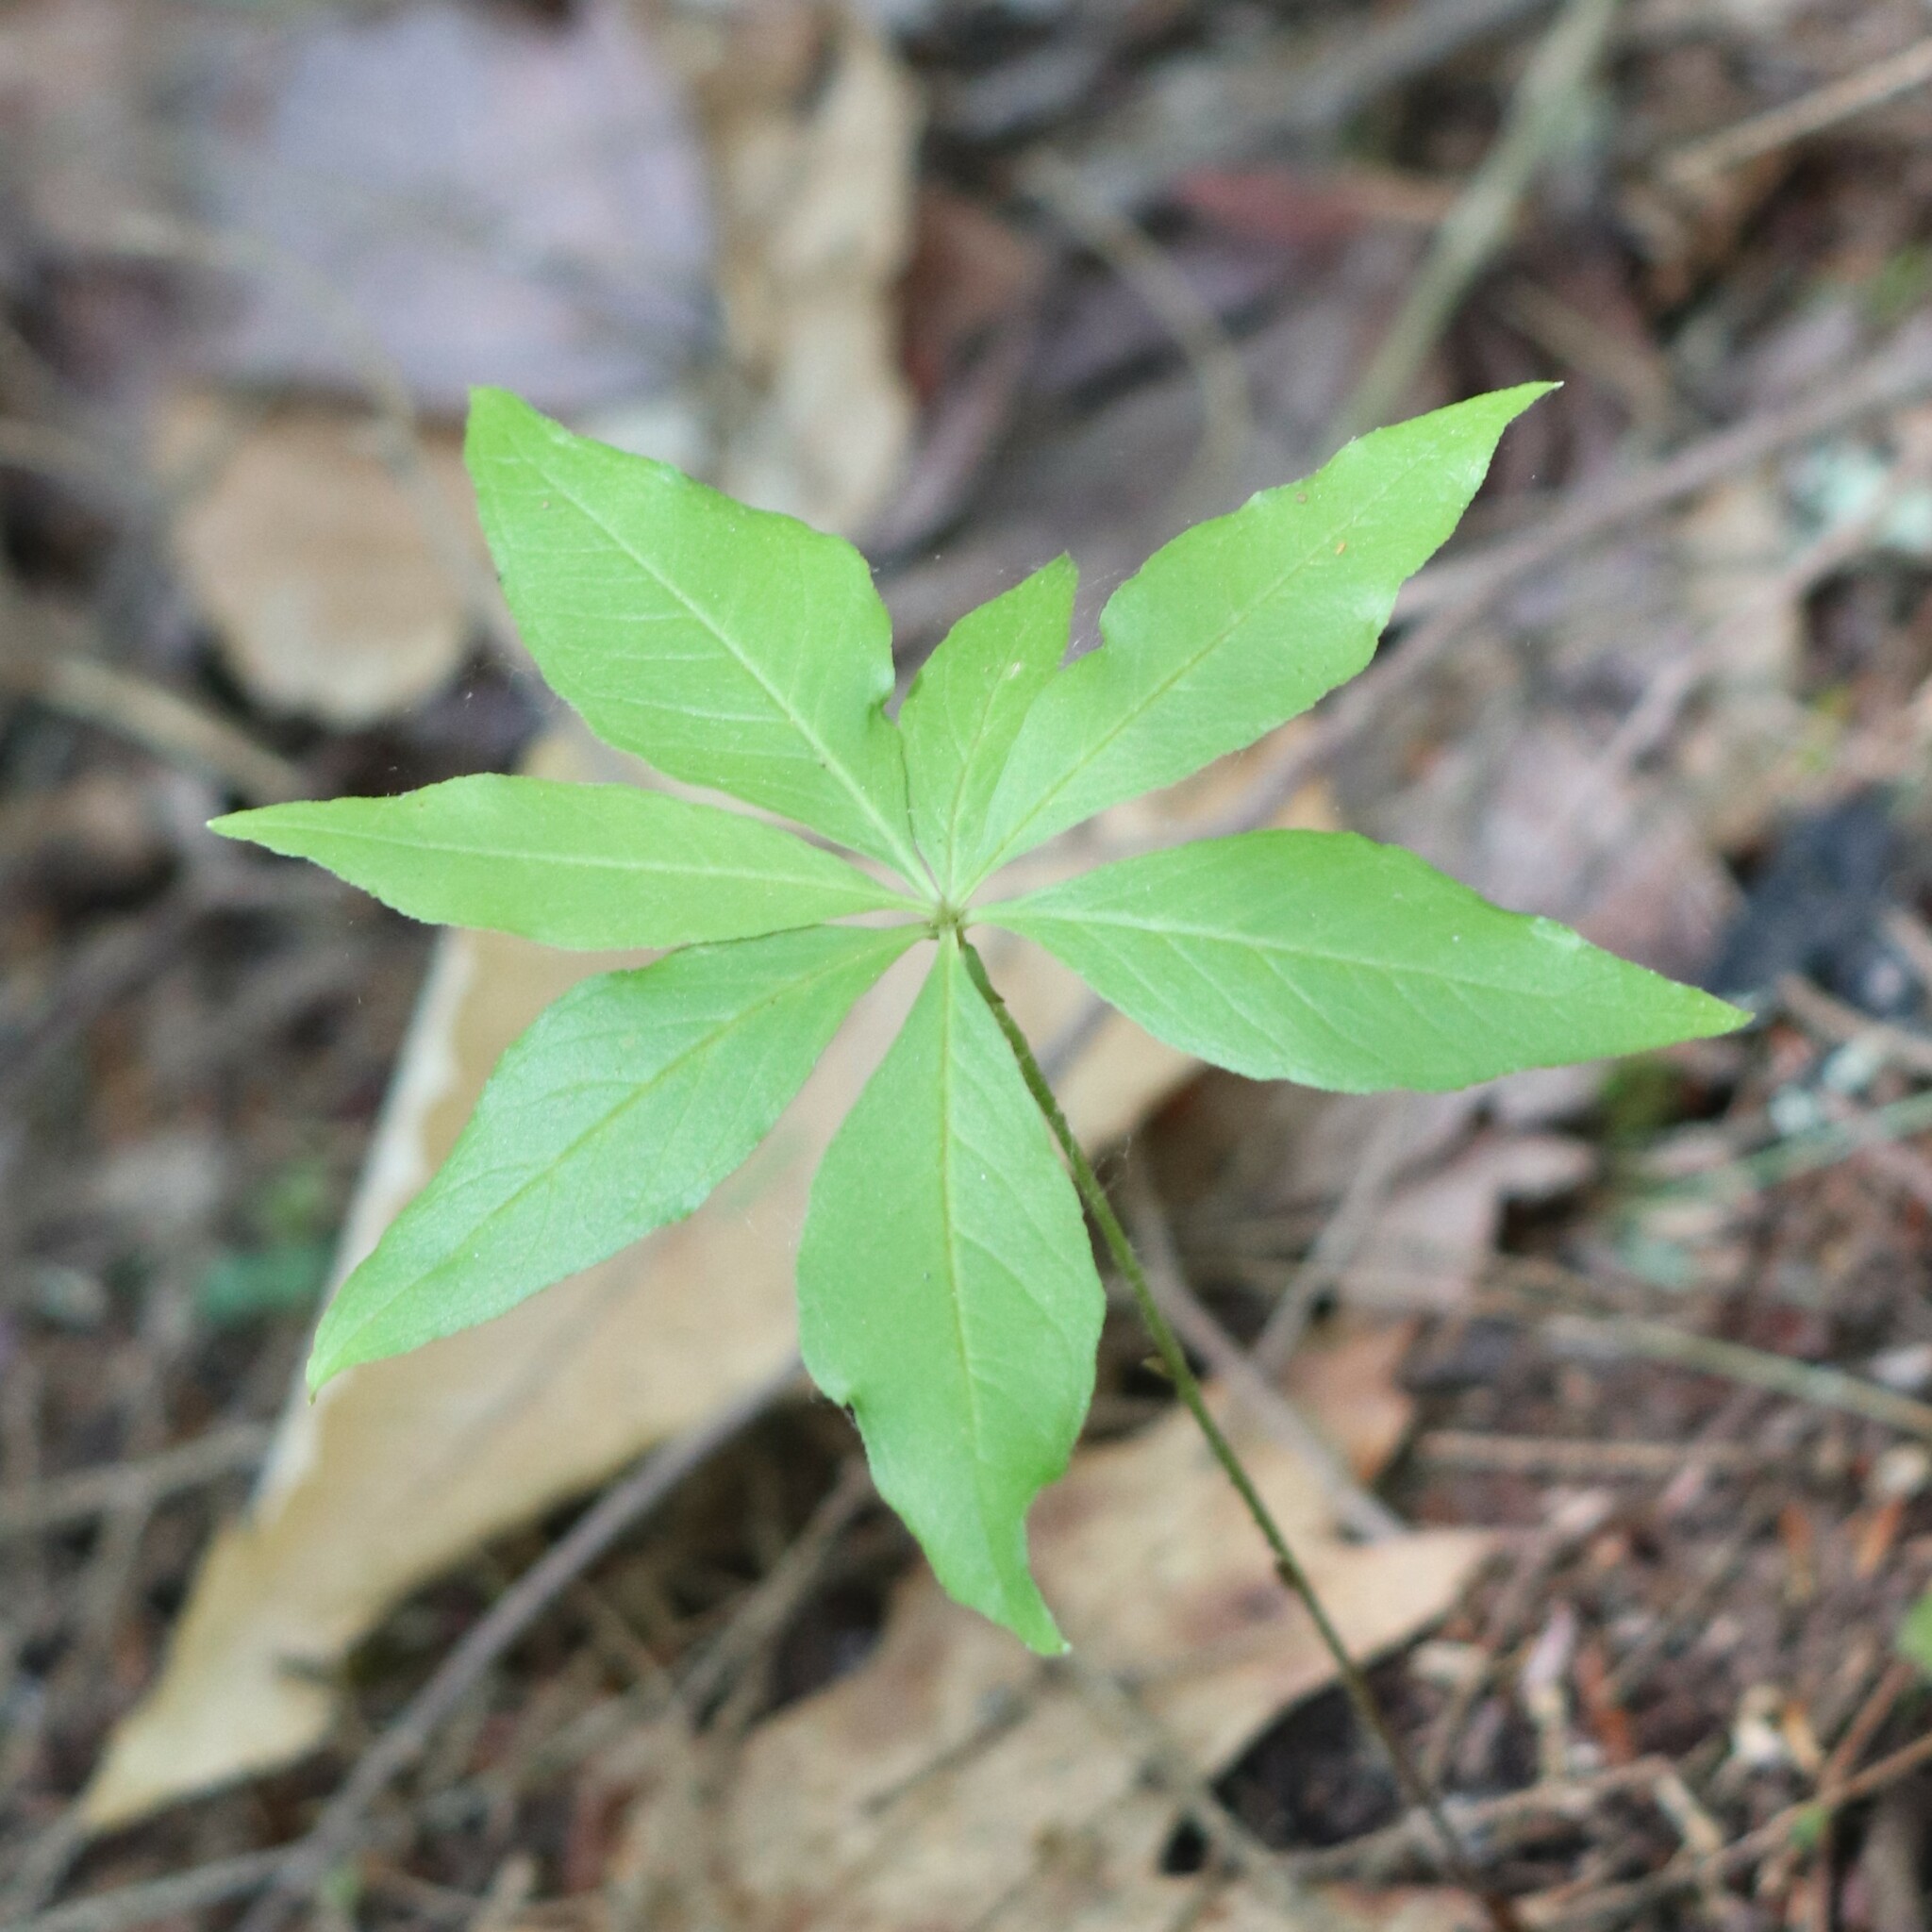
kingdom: Plantae
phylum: Tracheophyta
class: Magnoliopsida
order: Ericales
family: Primulaceae
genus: Lysimachia
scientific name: Lysimachia borealis
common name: American starflower
